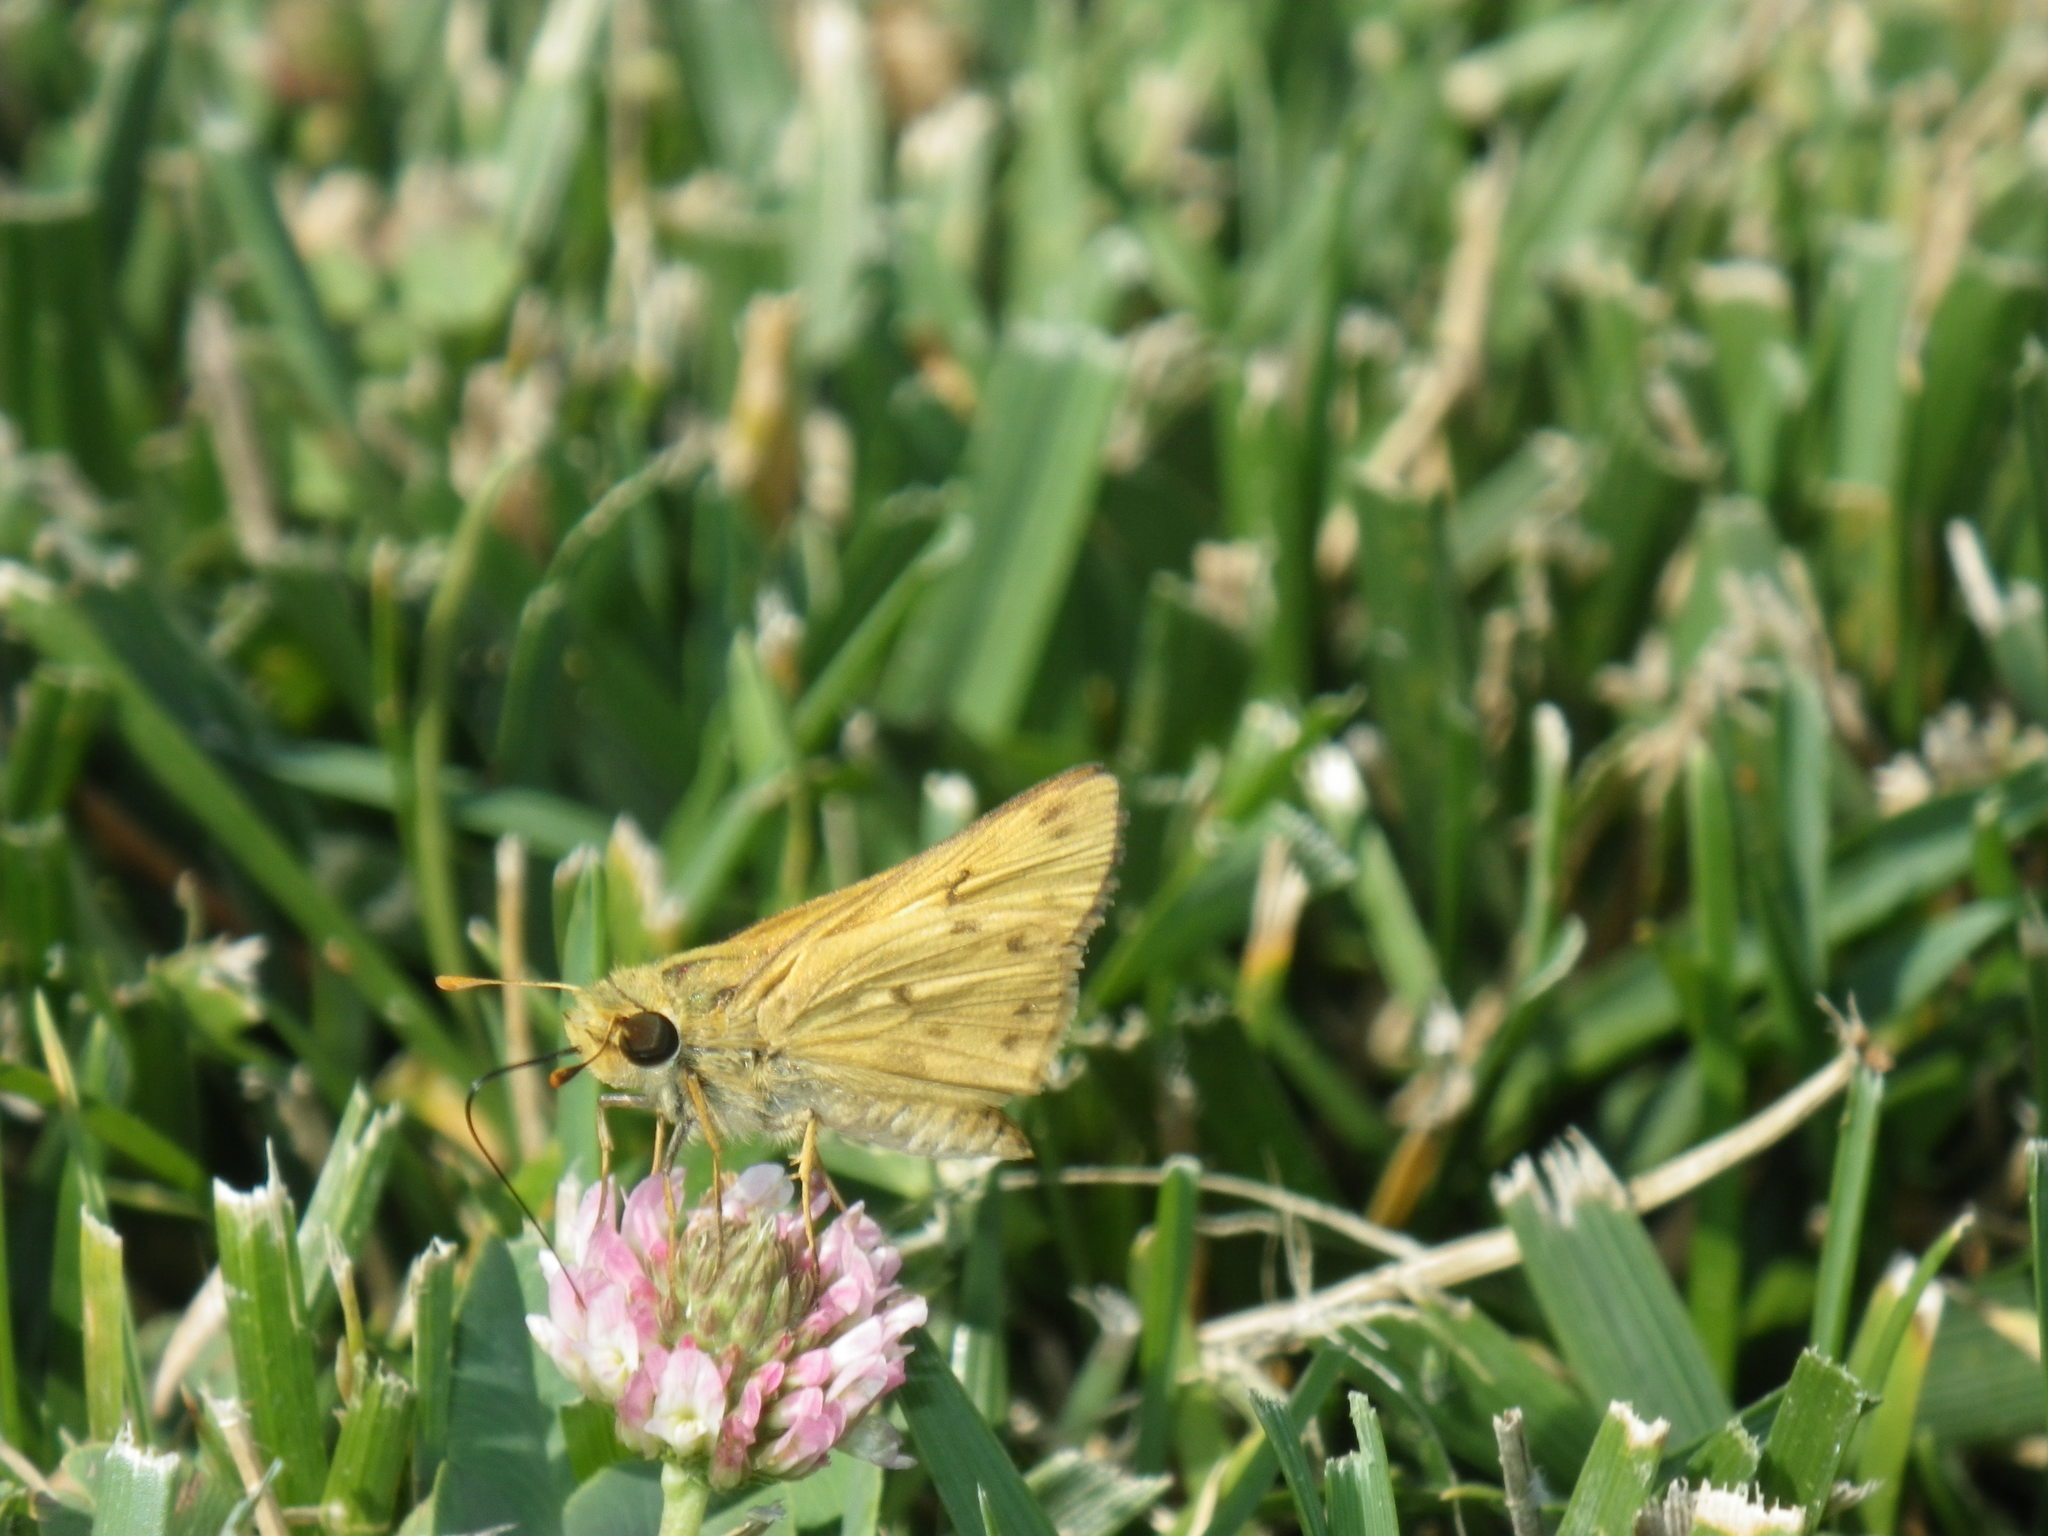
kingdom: Animalia
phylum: Arthropoda
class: Insecta
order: Lepidoptera
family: Hesperiidae
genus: Hylephila
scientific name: Hylephila phyleus
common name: Fiery skipper
